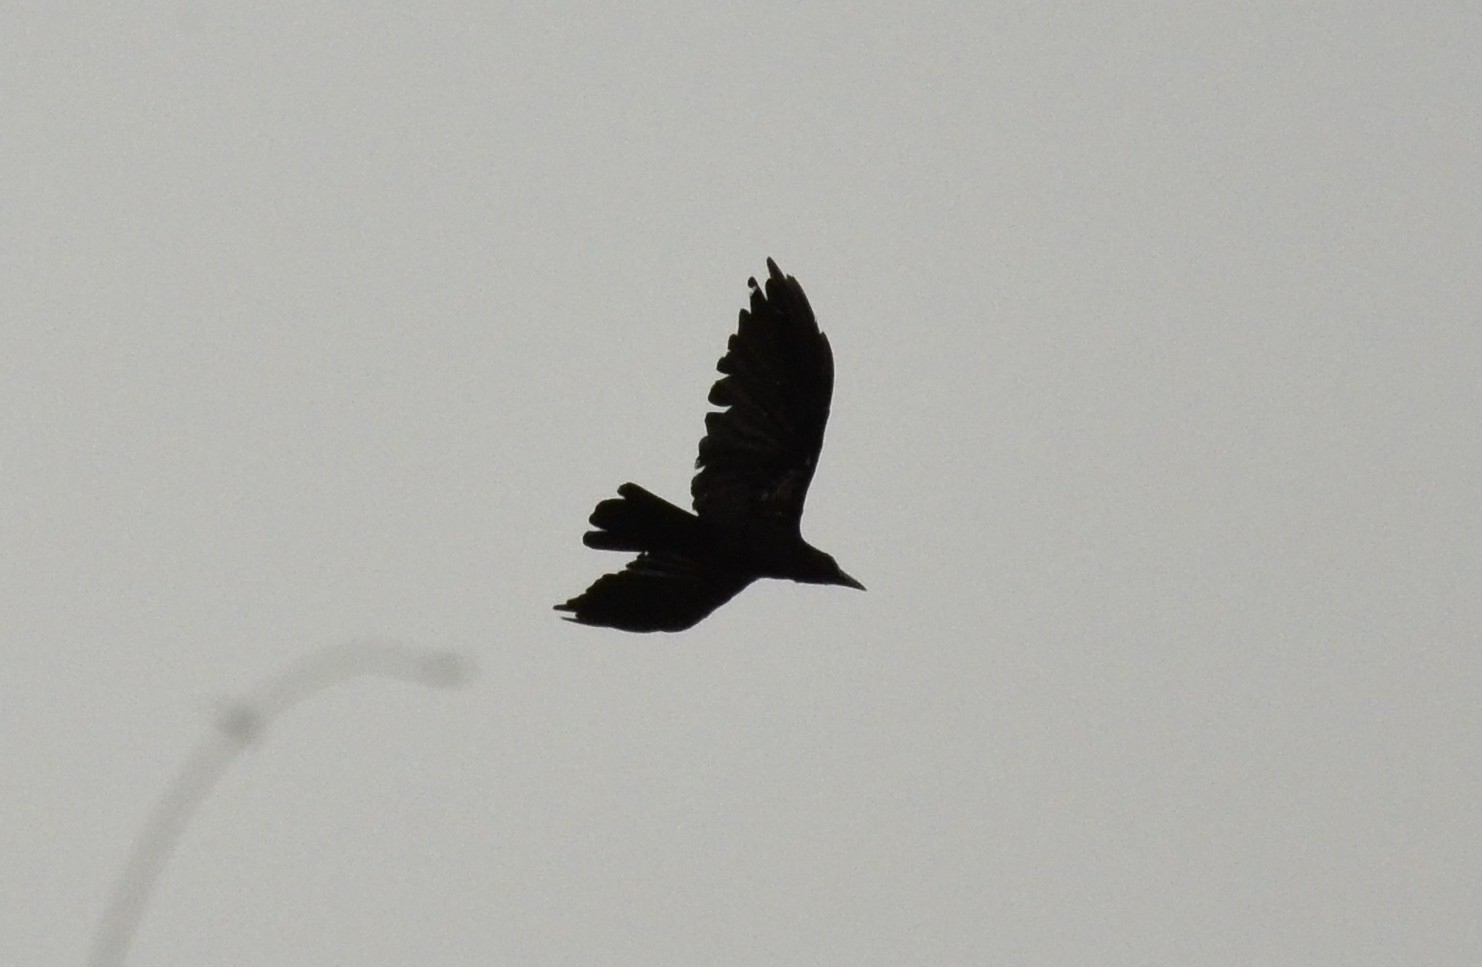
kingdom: Animalia
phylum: Chordata
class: Aves
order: Passeriformes
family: Corvidae
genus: Corvus
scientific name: Corvus macrorhynchos
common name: Large-billed crow
